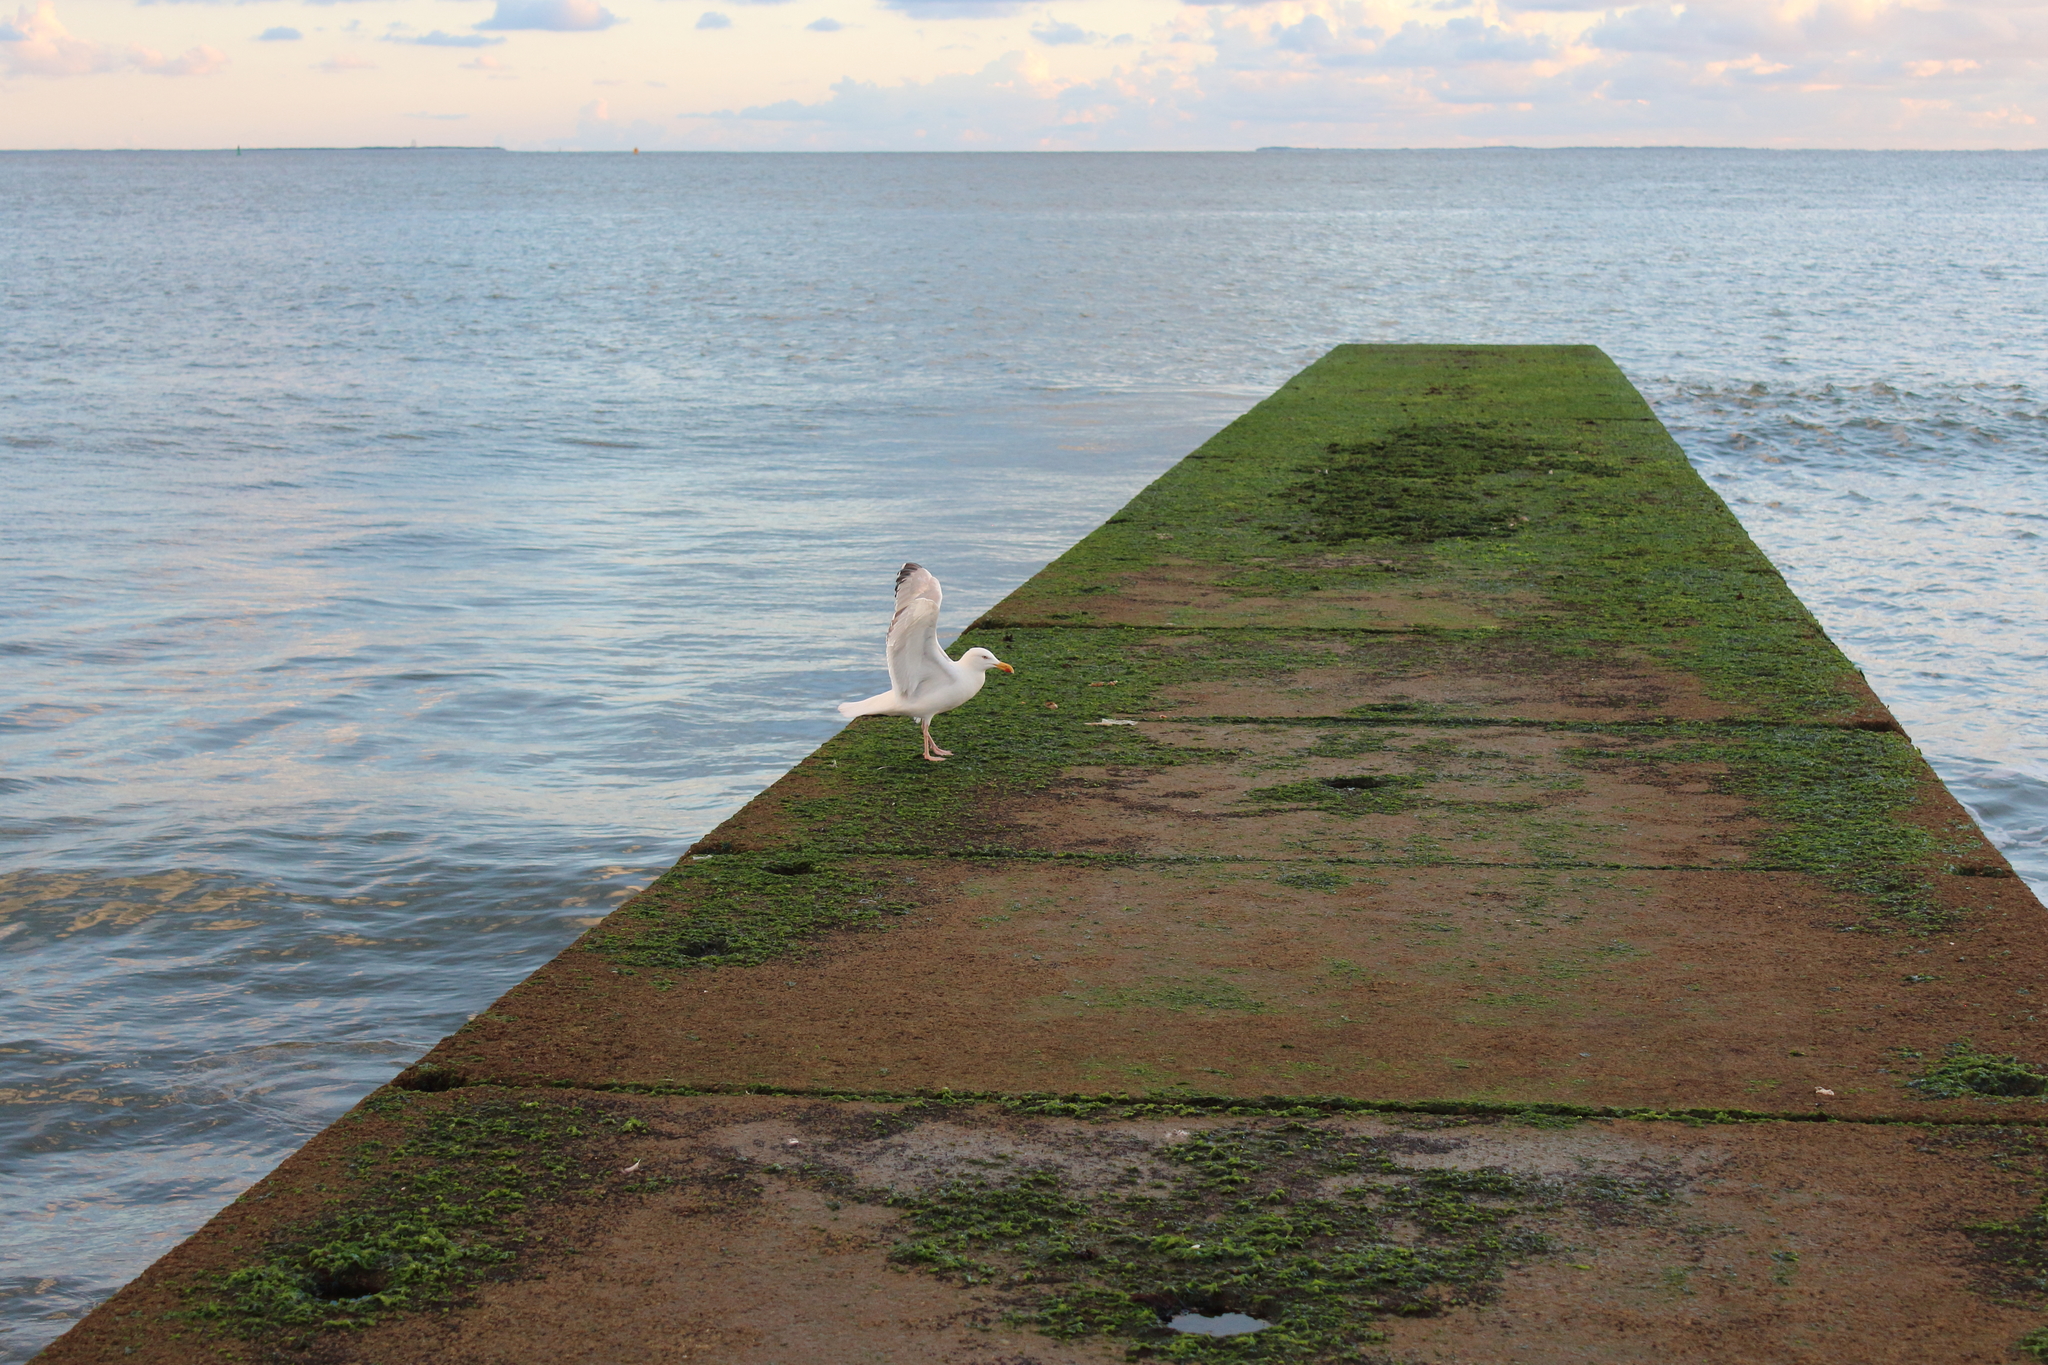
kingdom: Animalia
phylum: Chordata
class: Aves
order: Charadriiformes
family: Laridae
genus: Larus
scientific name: Larus argentatus
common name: Herring gull
